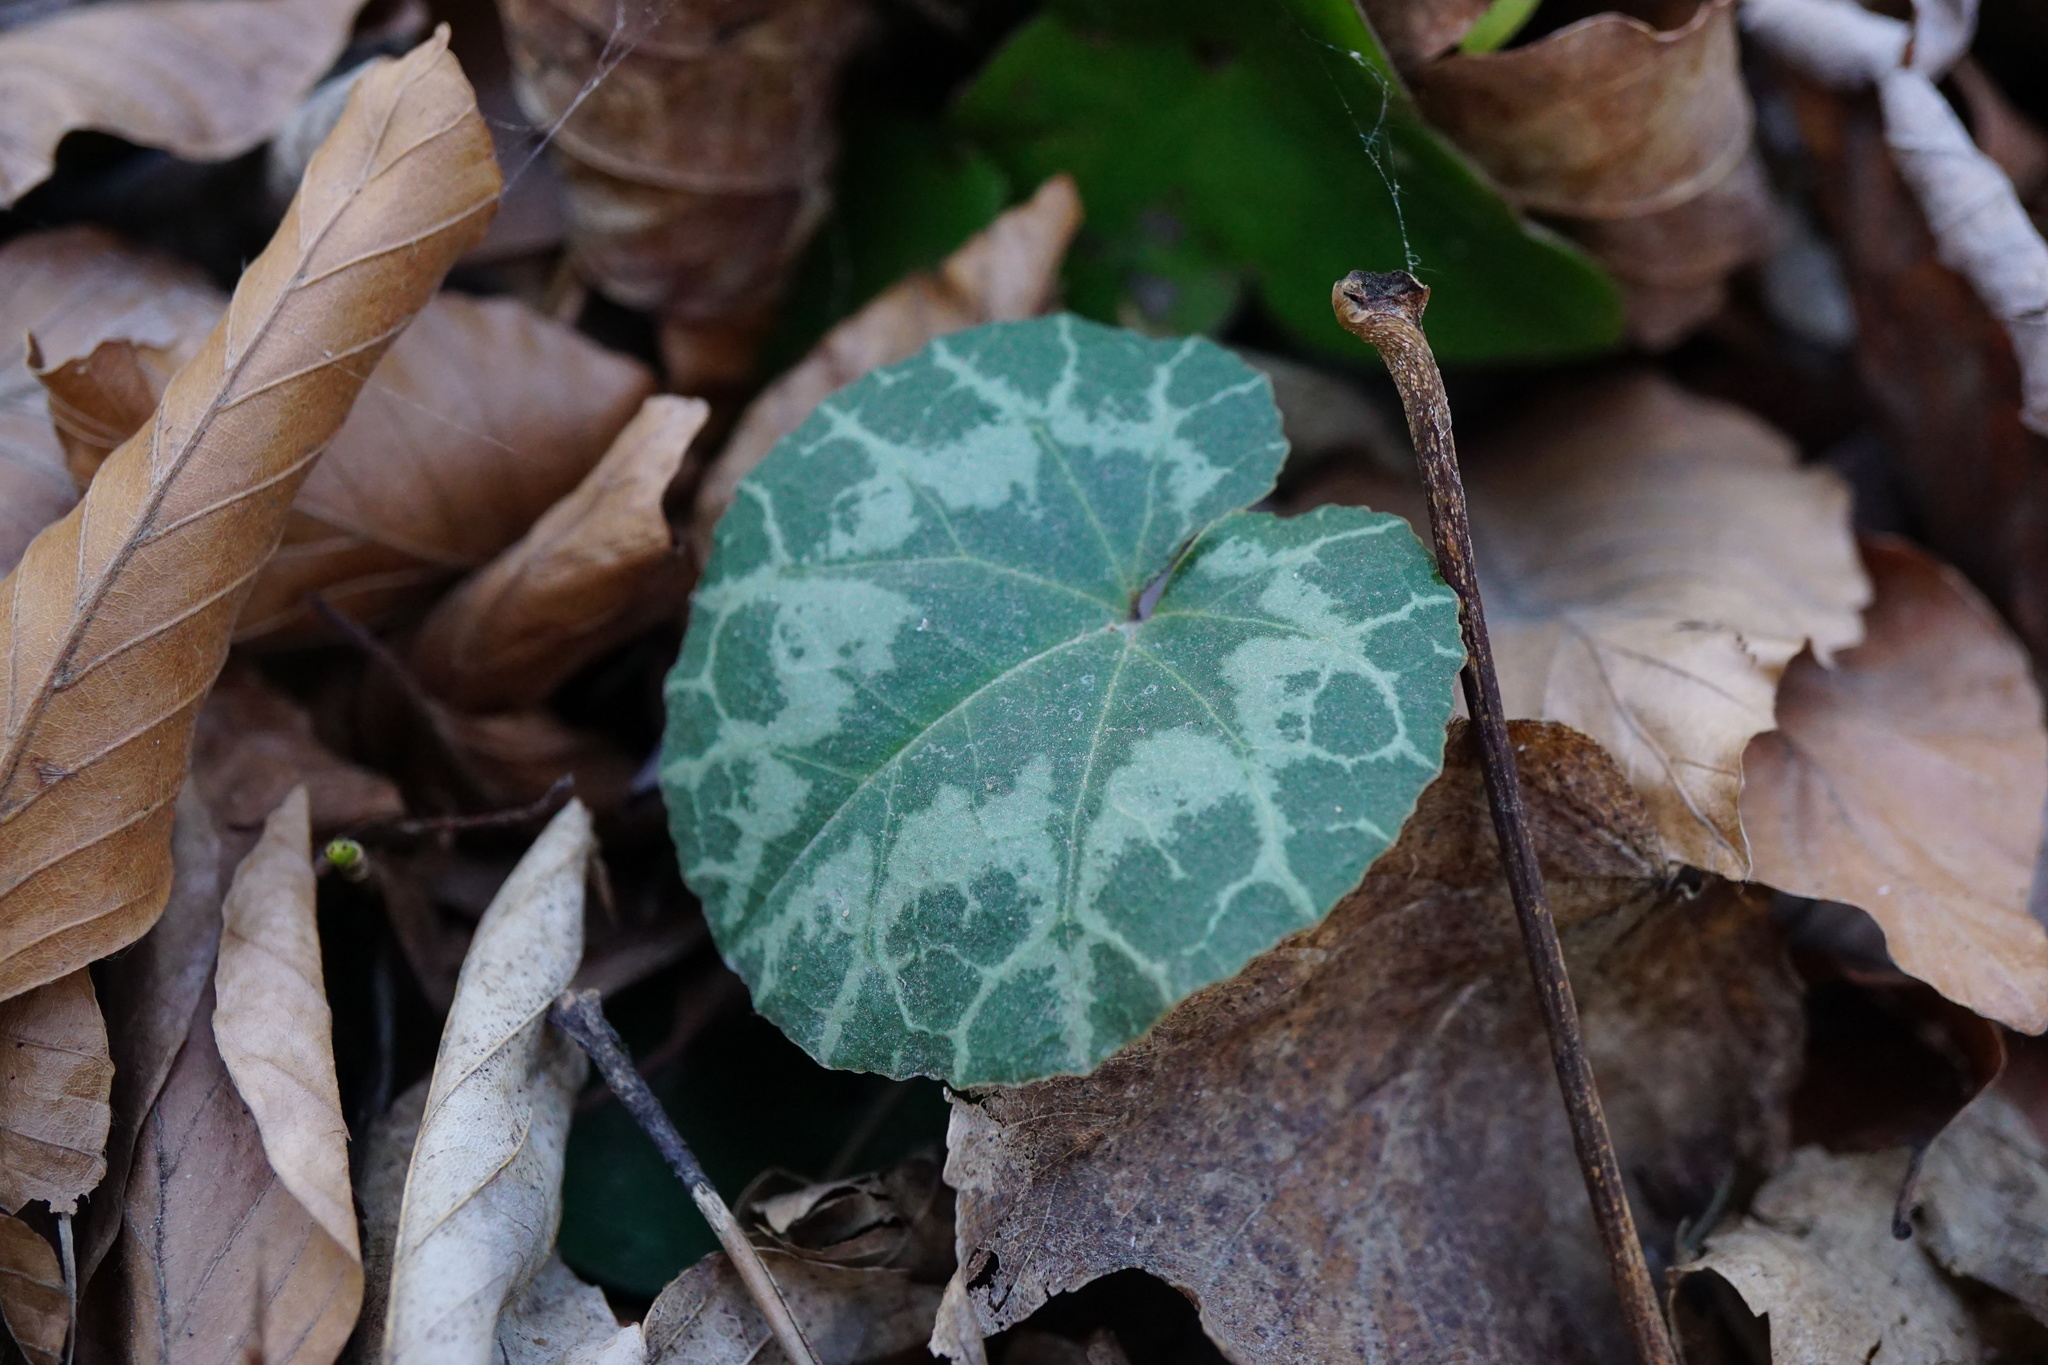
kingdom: Plantae
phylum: Tracheophyta
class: Magnoliopsida
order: Ericales
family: Primulaceae
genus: Cyclamen
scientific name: Cyclamen purpurascens
